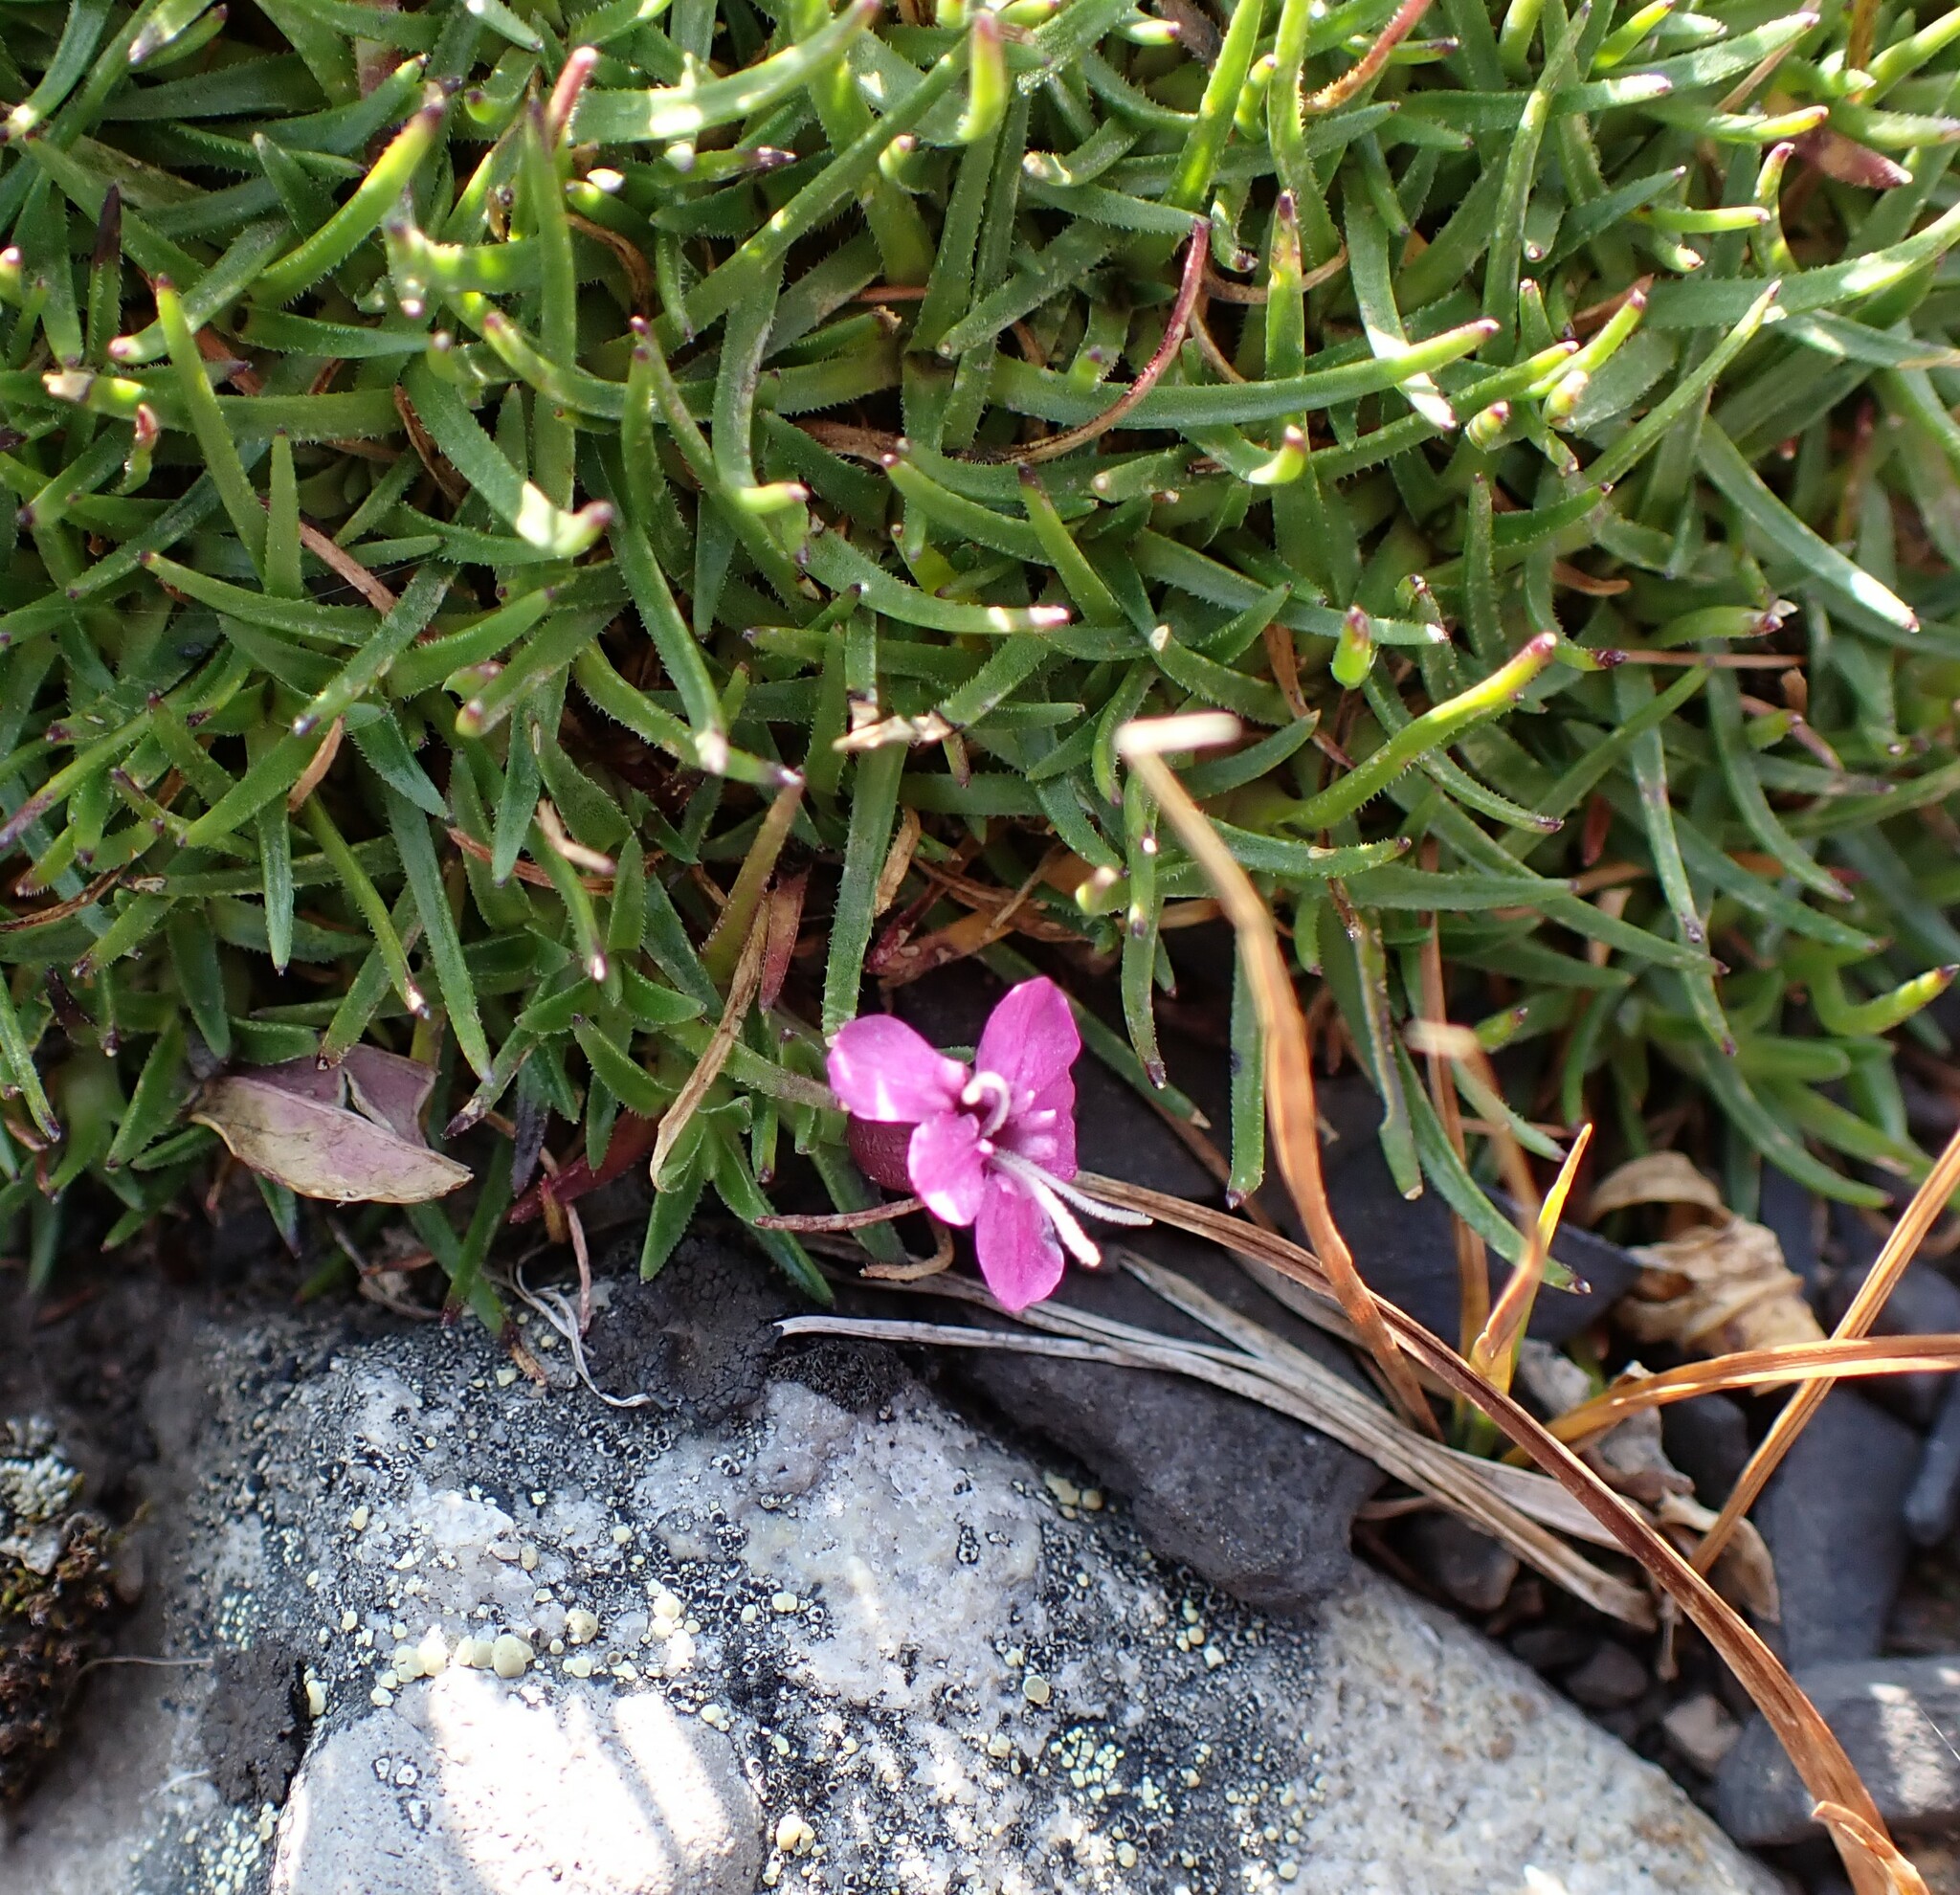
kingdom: Plantae
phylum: Tracheophyta
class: Magnoliopsida
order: Caryophyllales
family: Caryophyllaceae
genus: Silene
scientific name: Silene acaulis
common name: Moss campion
